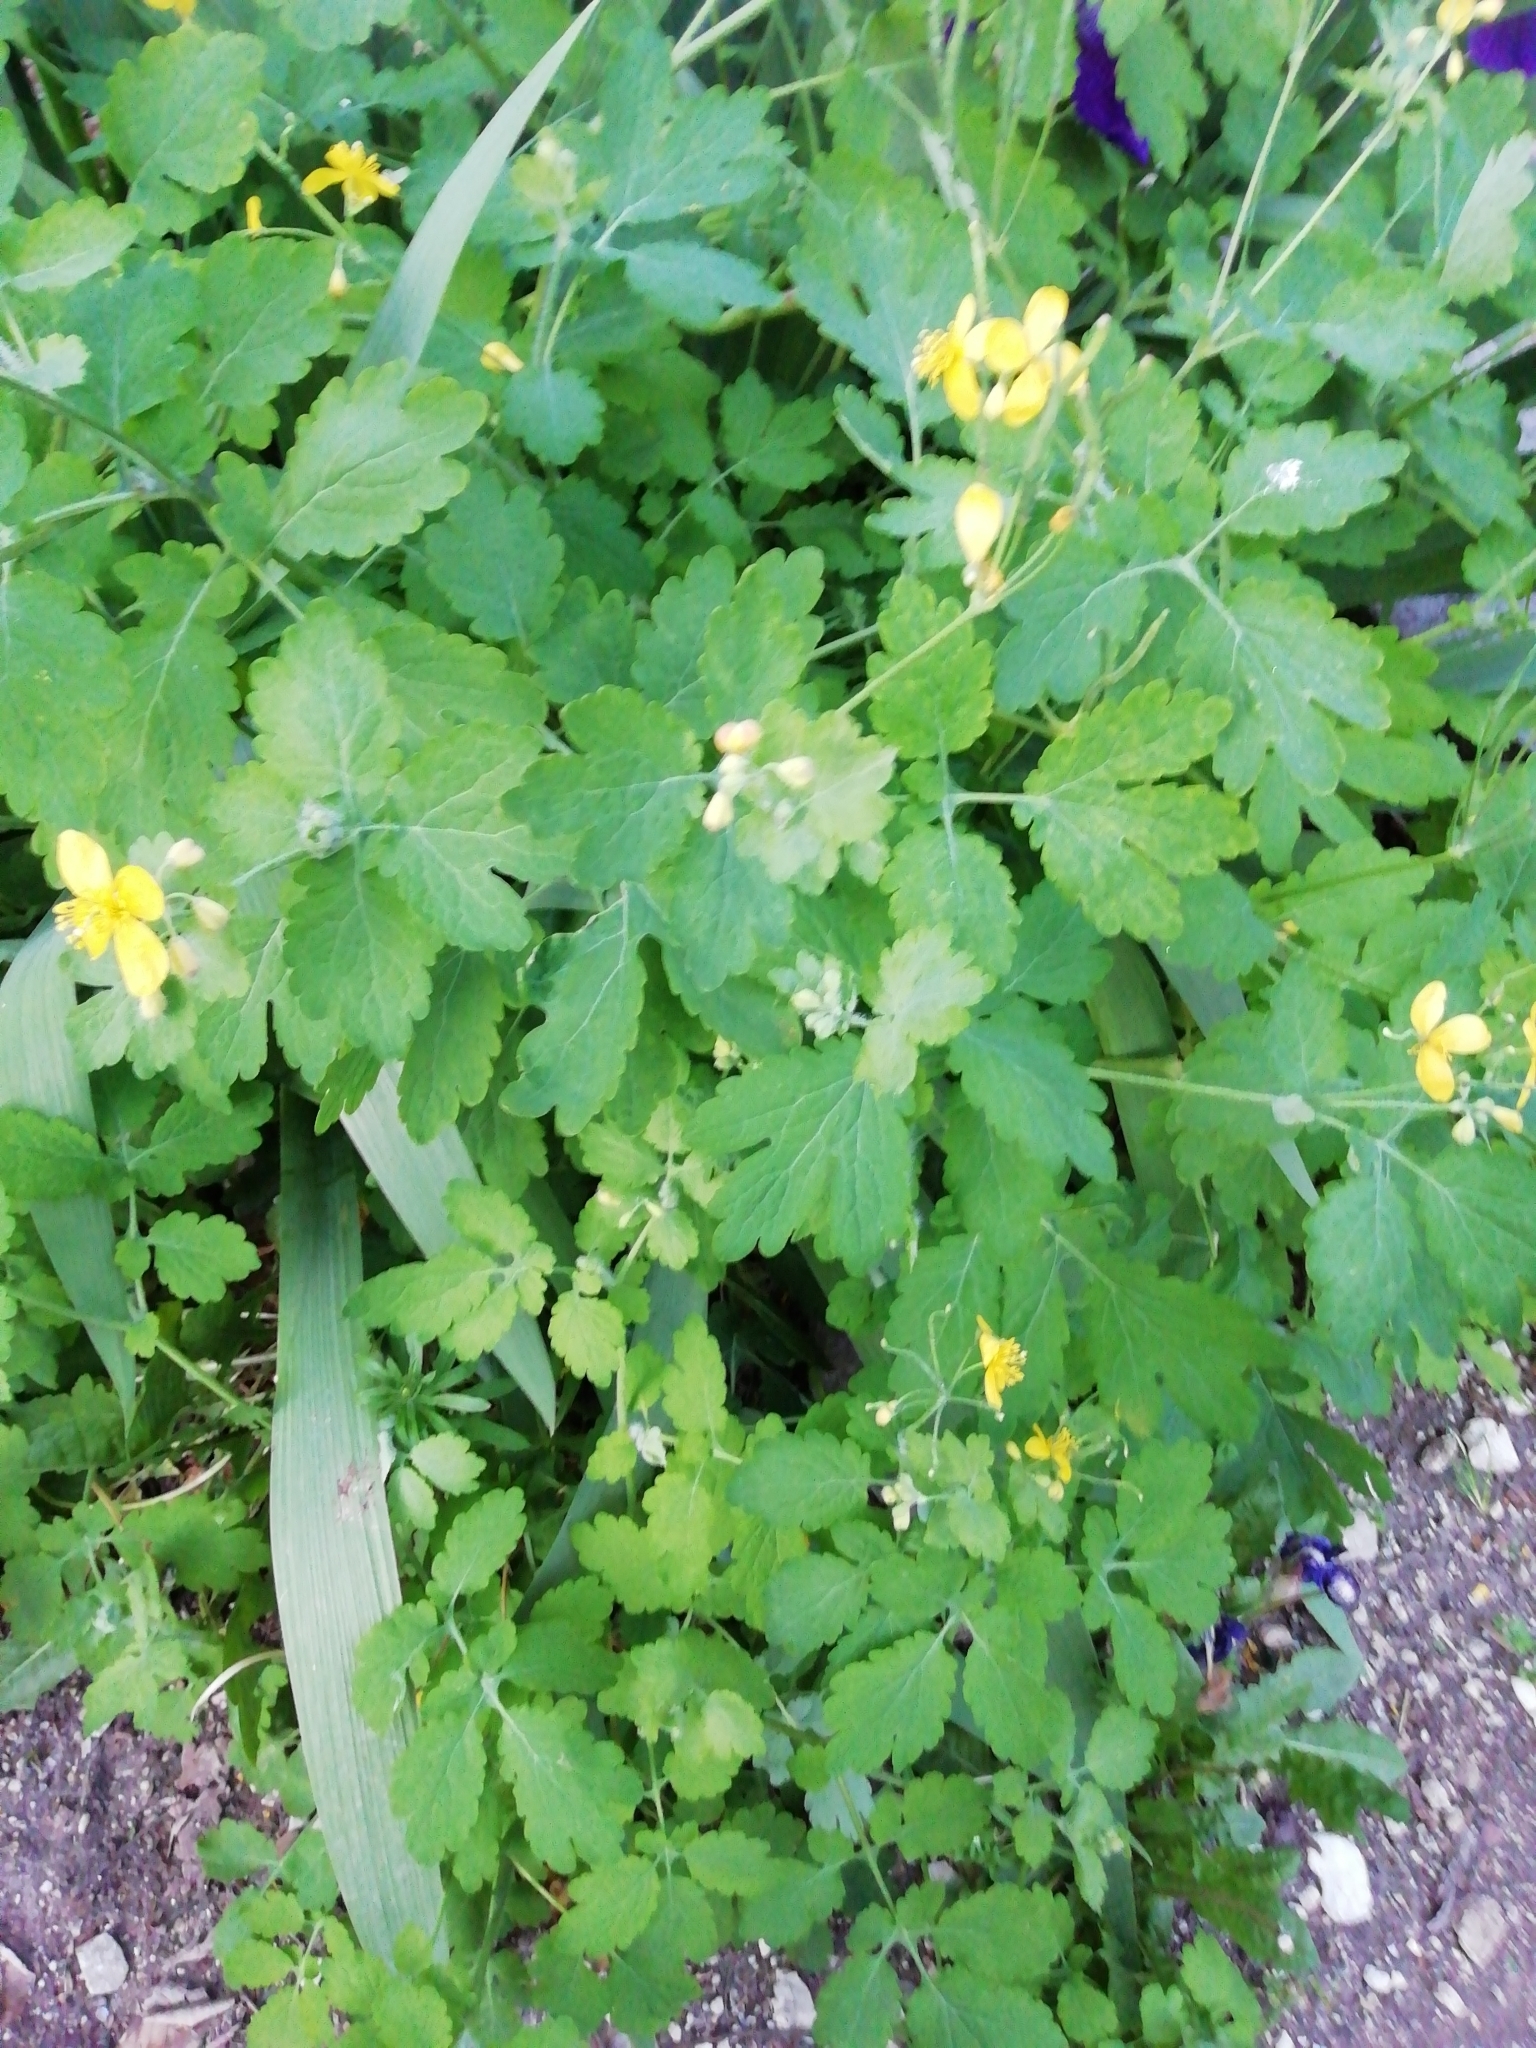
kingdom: Plantae
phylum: Tracheophyta
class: Magnoliopsida
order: Ranunculales
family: Papaveraceae
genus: Chelidonium
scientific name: Chelidonium majus
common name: Greater celandine
